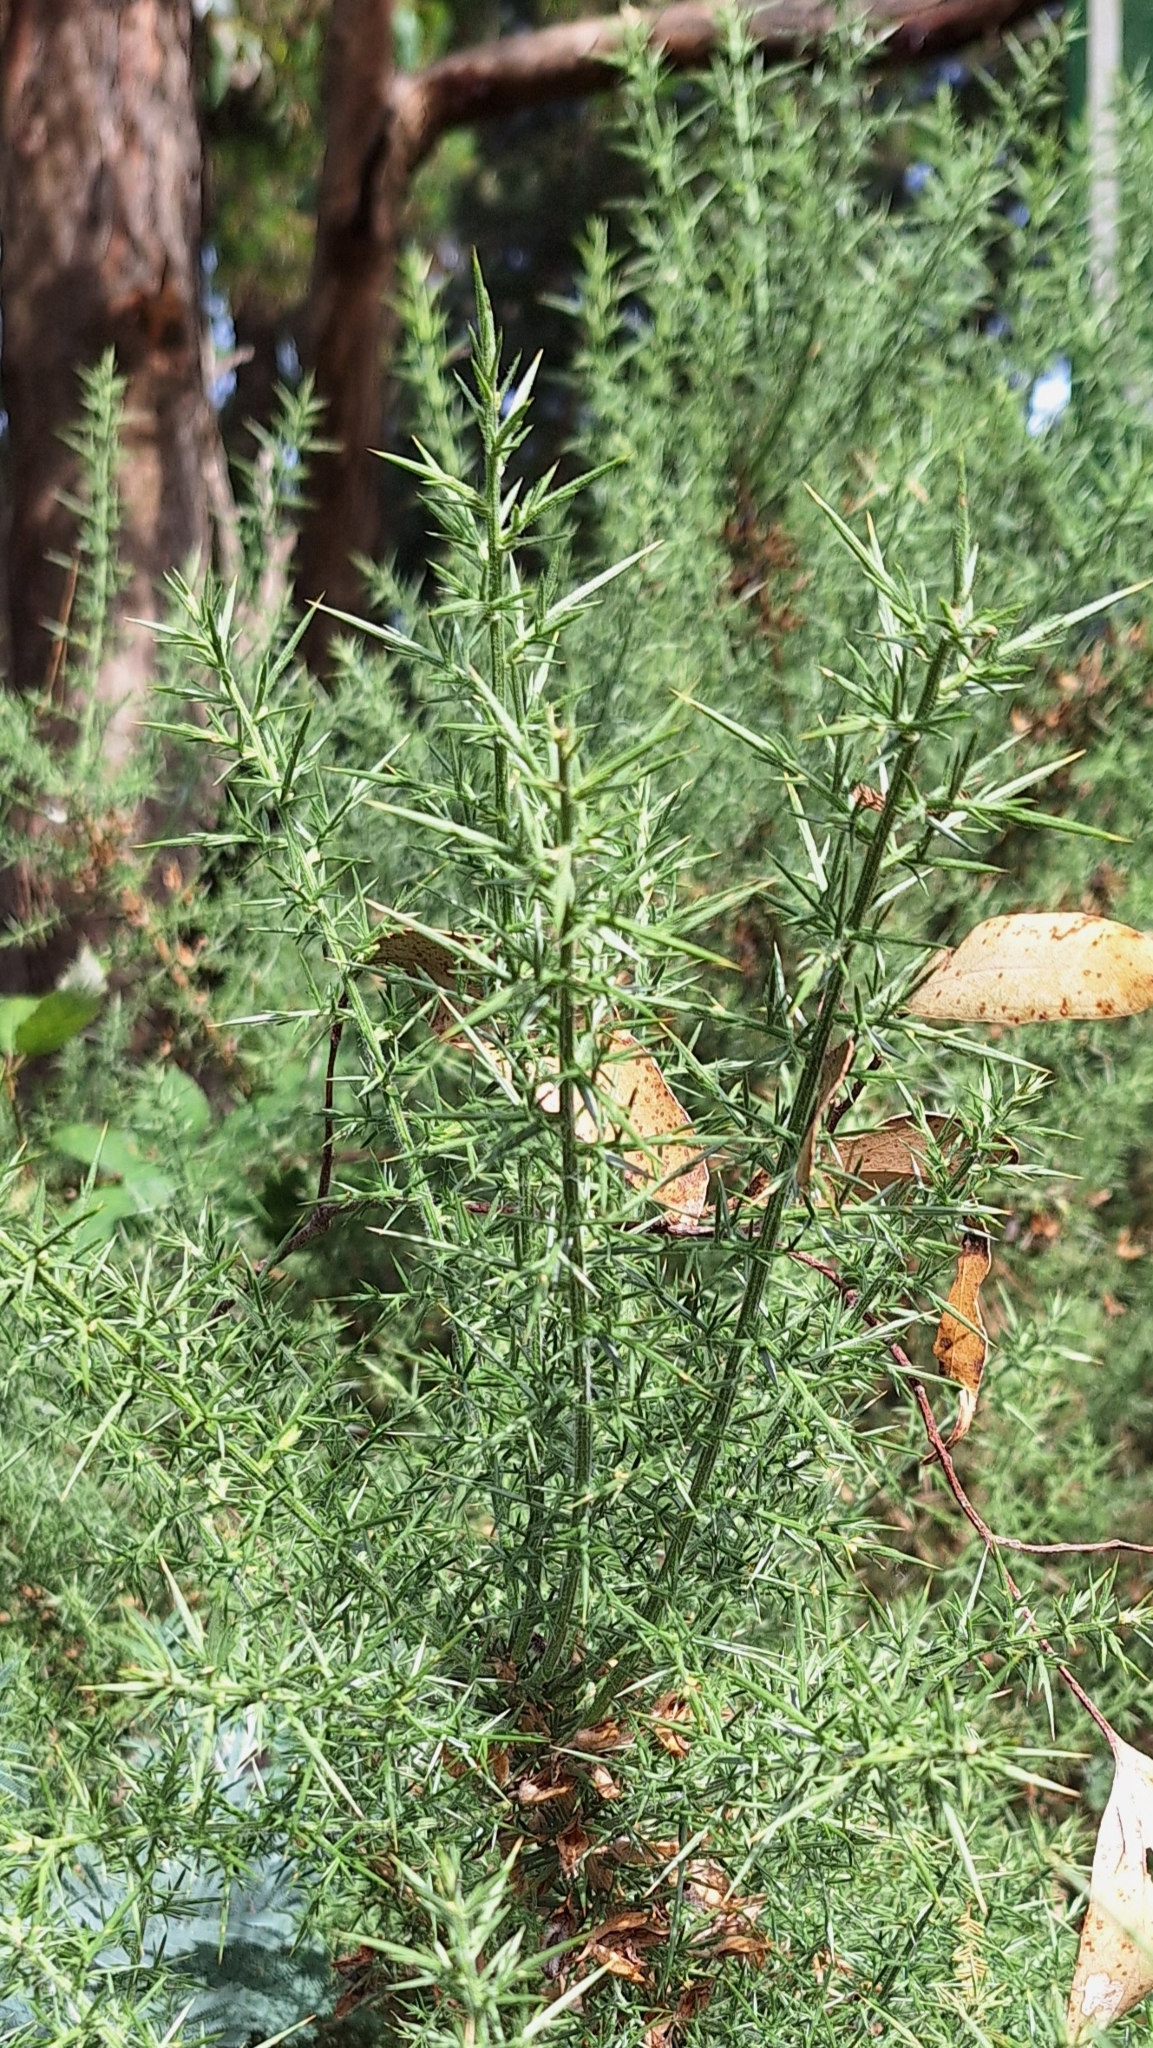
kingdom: Plantae
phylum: Tracheophyta
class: Magnoliopsida
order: Fabales
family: Fabaceae
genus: Ulex
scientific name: Ulex europaeus
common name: Common gorse
